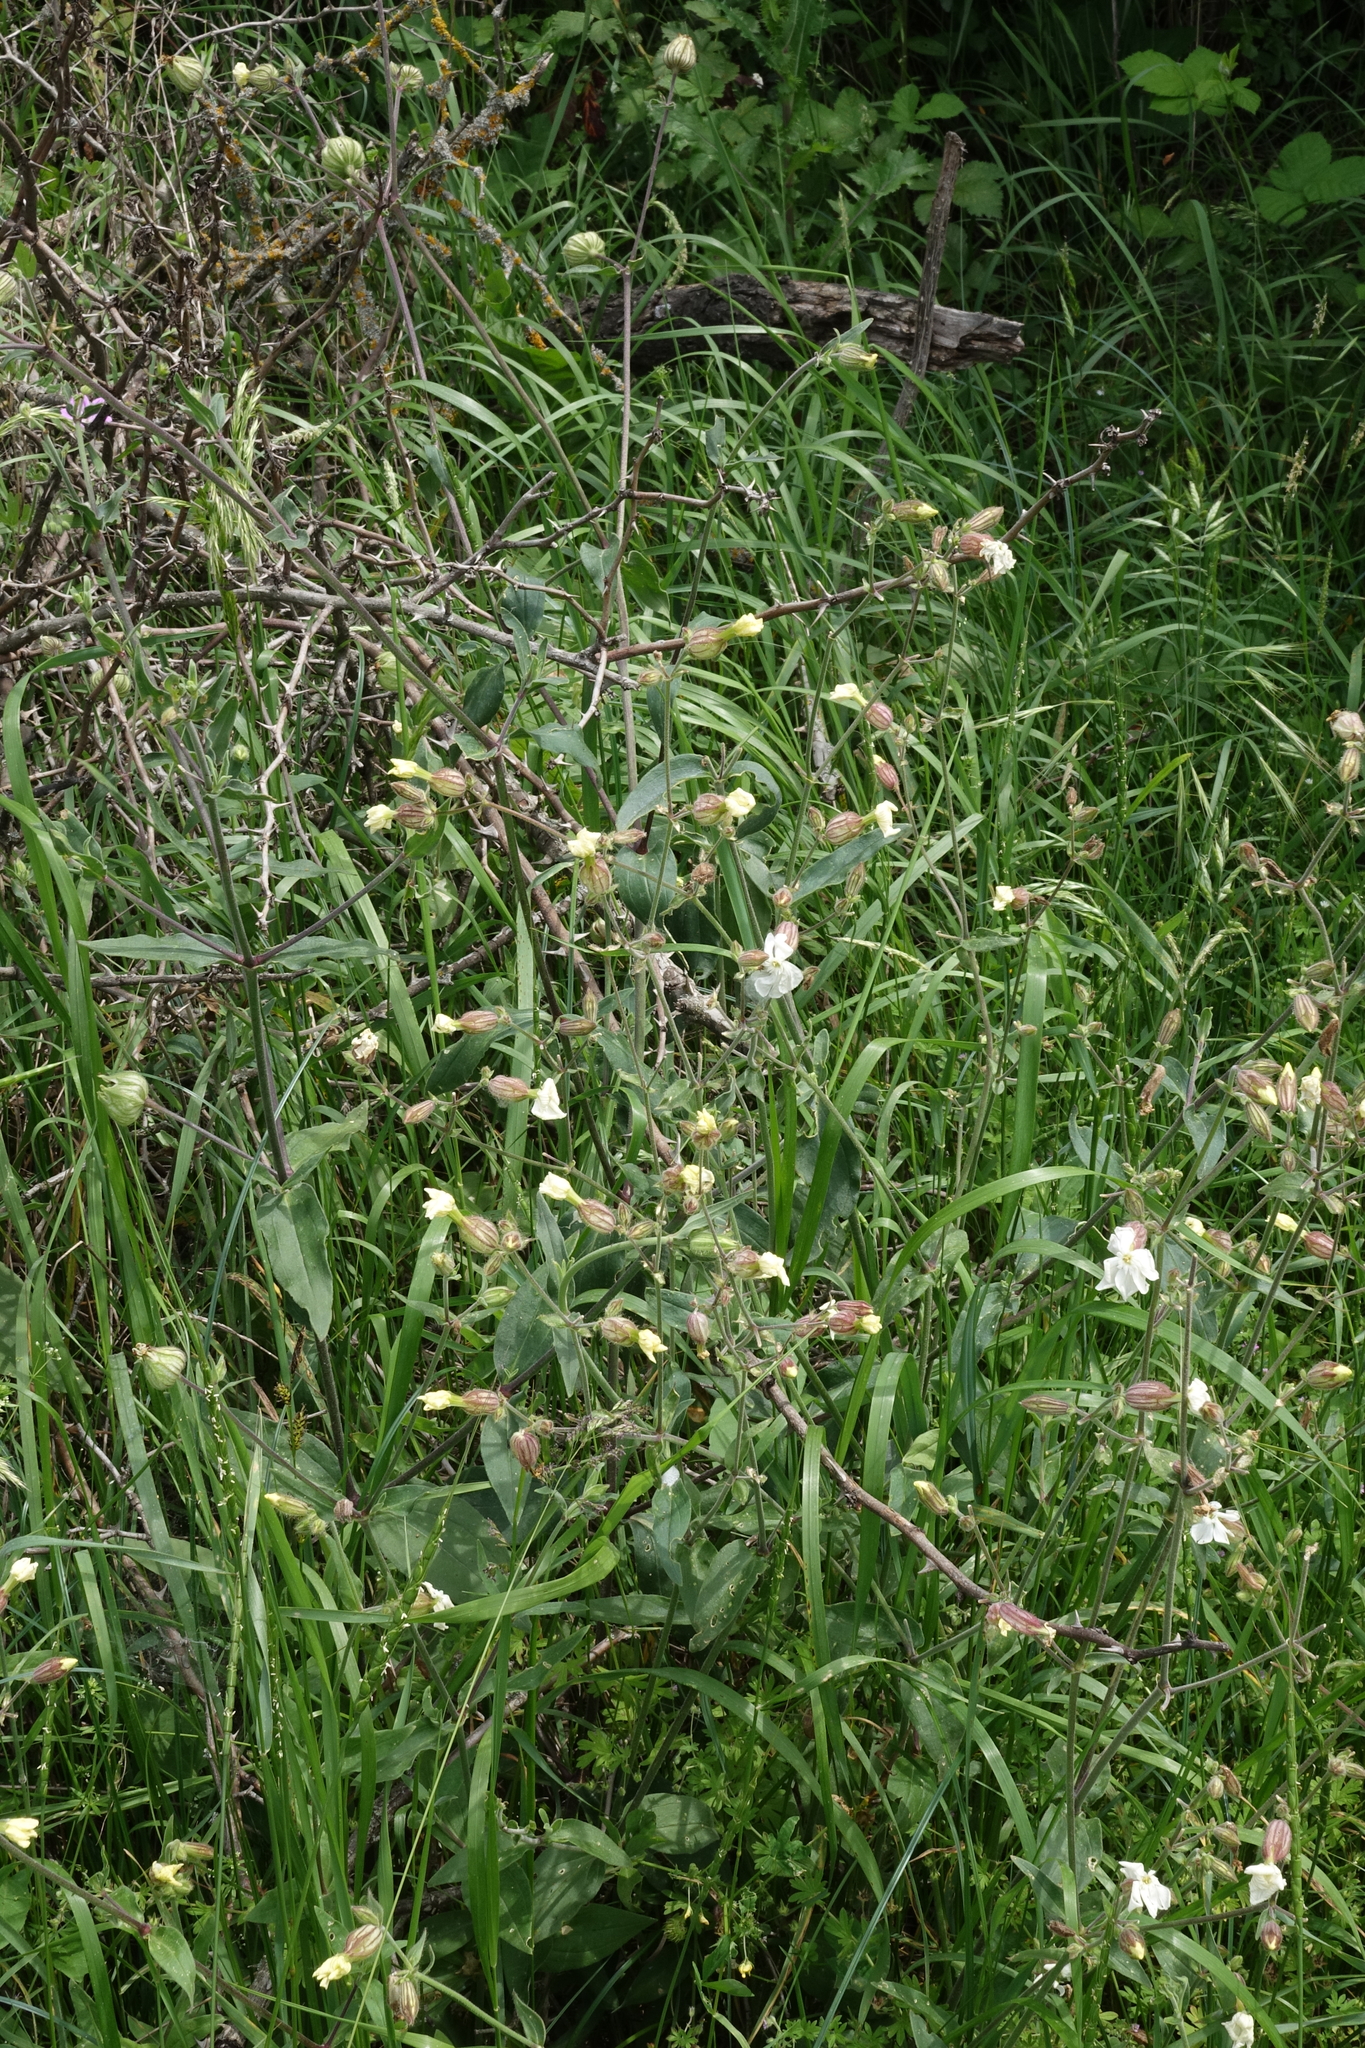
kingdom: Plantae
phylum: Tracheophyta
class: Magnoliopsida
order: Caryophyllales
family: Caryophyllaceae
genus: Silene
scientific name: Silene latifolia
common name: White campion
